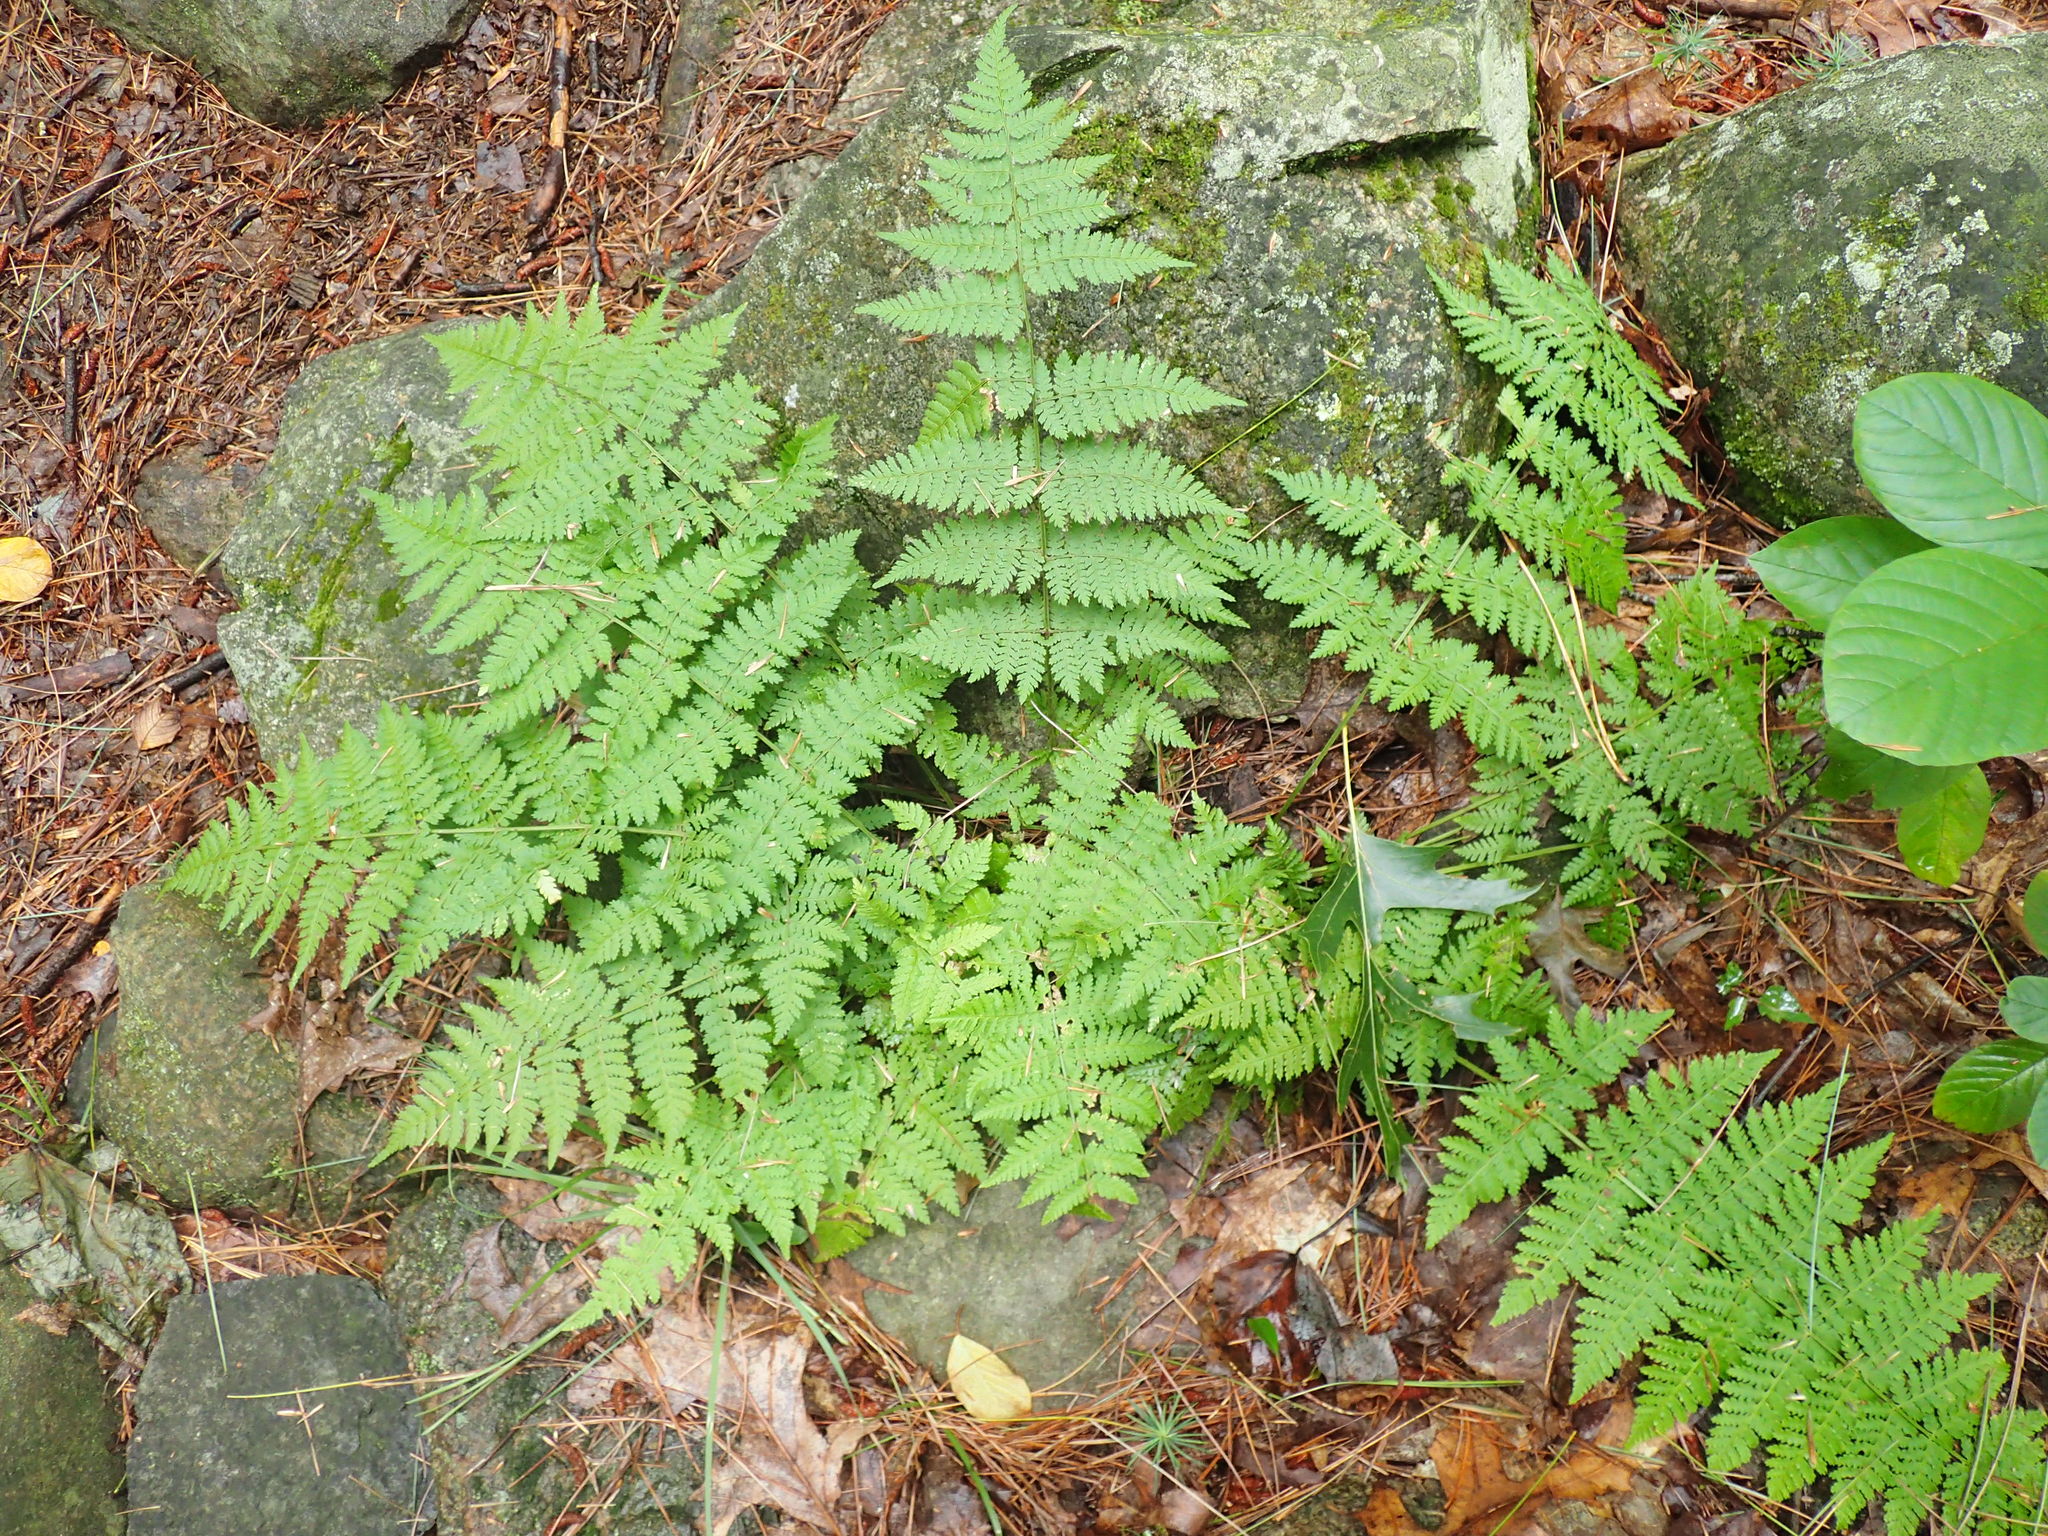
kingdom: Plantae
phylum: Tracheophyta
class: Polypodiopsida
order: Polypodiales
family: Dryopteridaceae
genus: Dryopteris
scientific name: Dryopteris intermedia
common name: Evergreen wood fern
